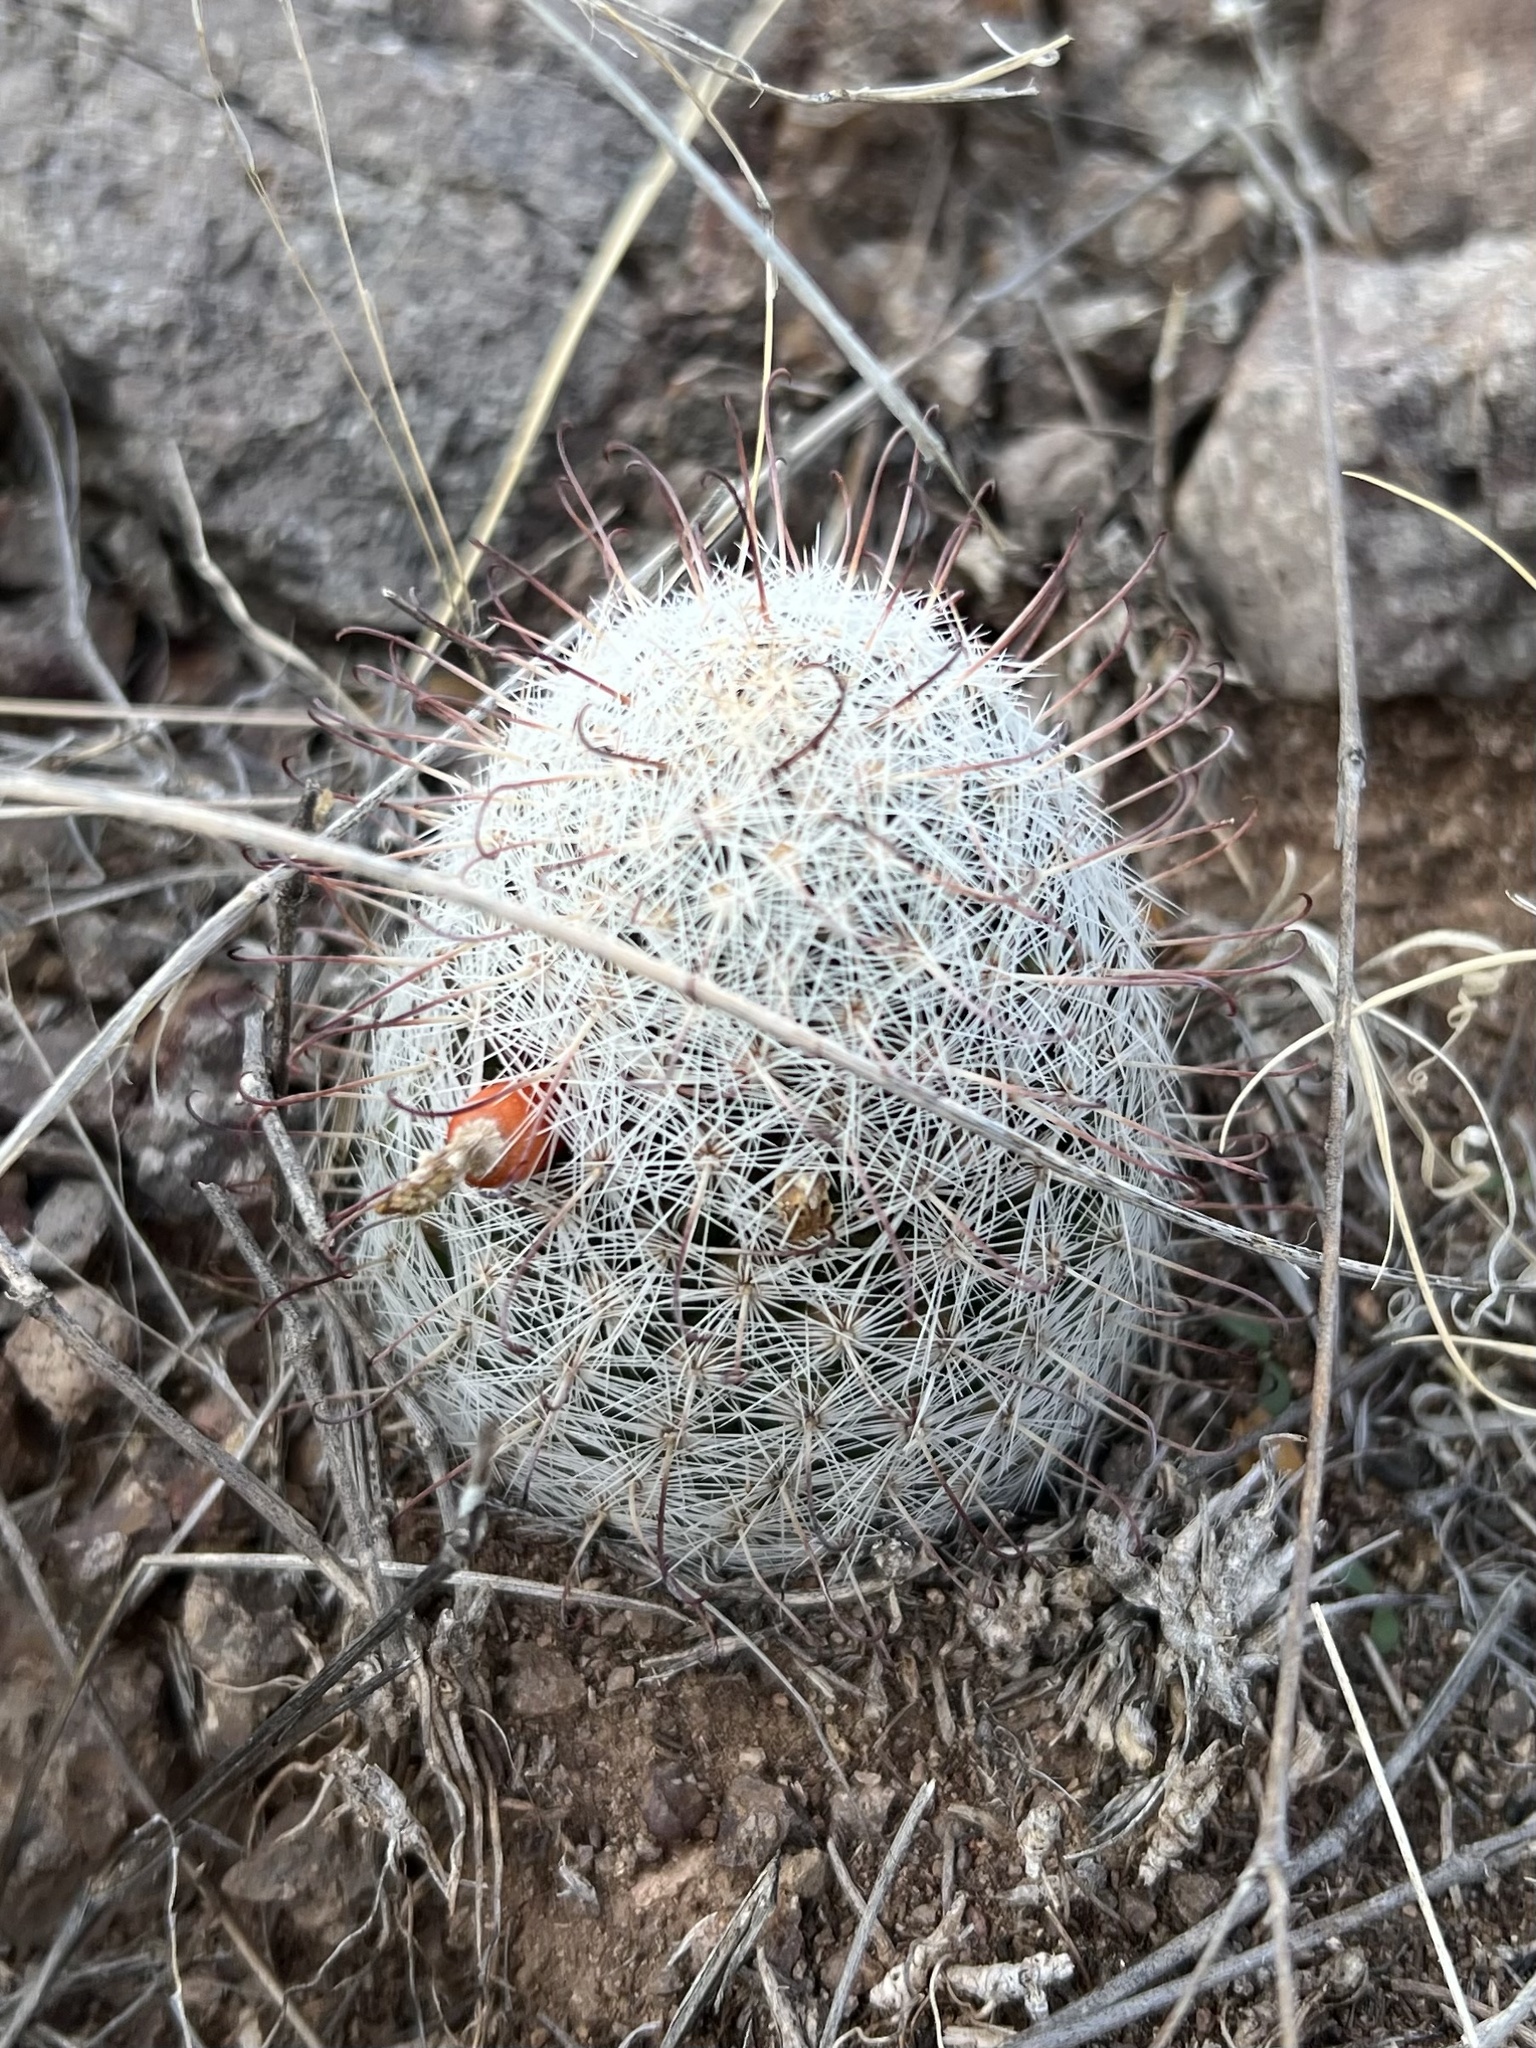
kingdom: Plantae
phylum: Tracheophyta
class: Magnoliopsida
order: Caryophyllales
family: Cactaceae
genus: Cochemiea
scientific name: Cochemiea grahamii
